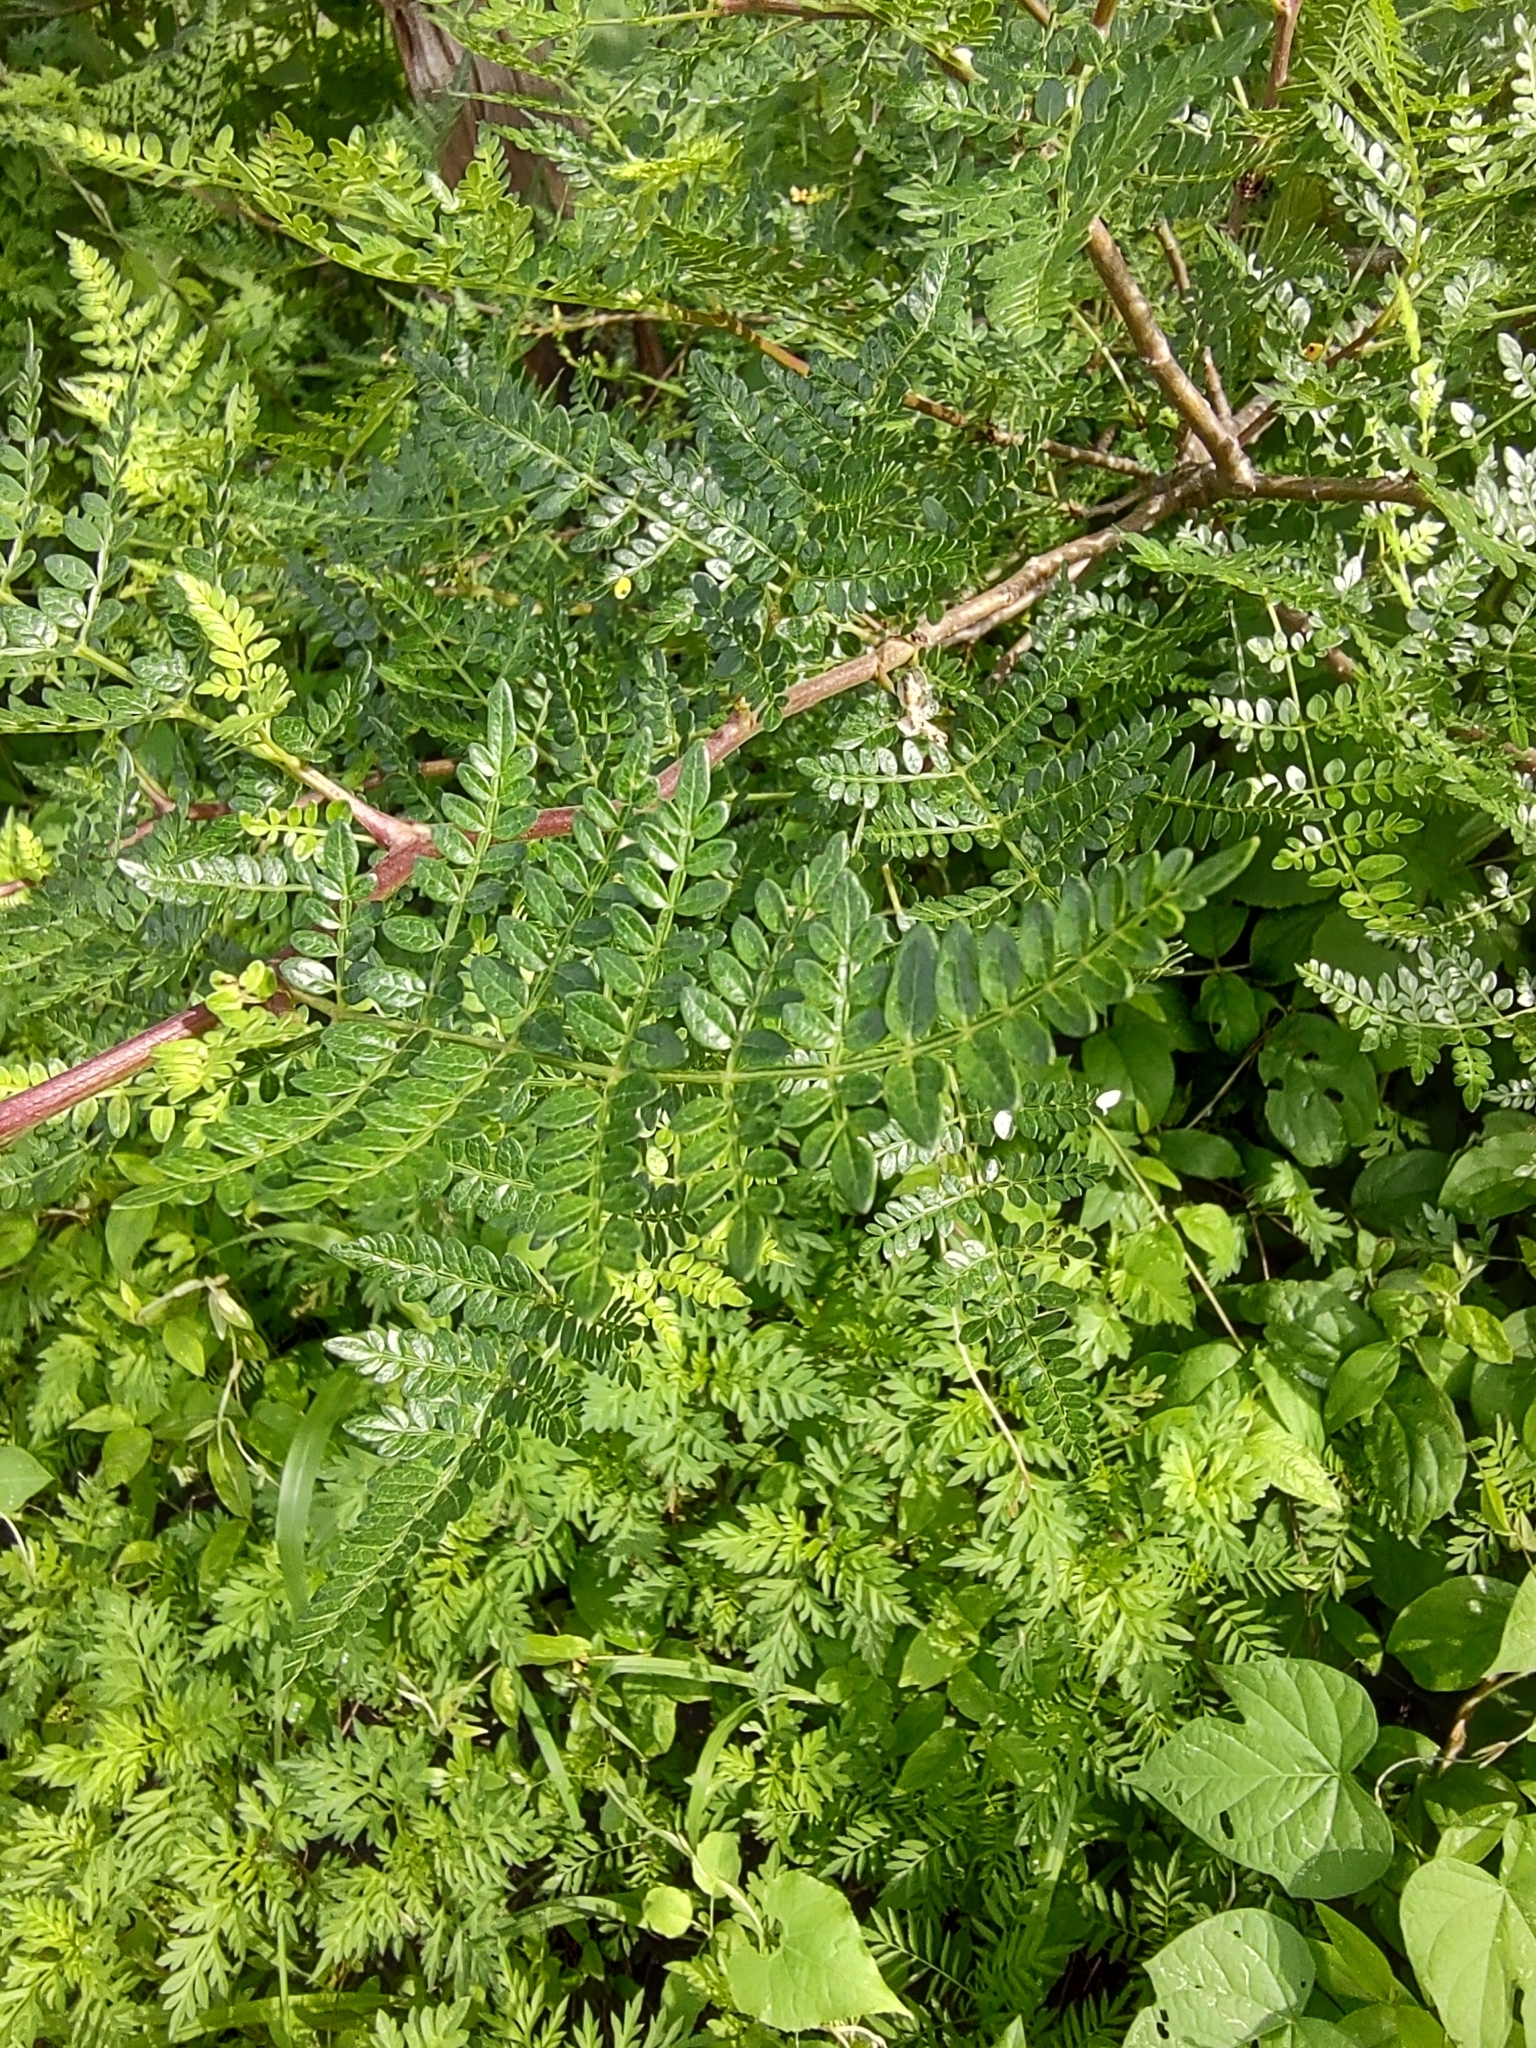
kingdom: Plantae
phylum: Tracheophyta
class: Magnoliopsida
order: Sapindales
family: Burseraceae
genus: Bursera
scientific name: Bursera bipinnata
